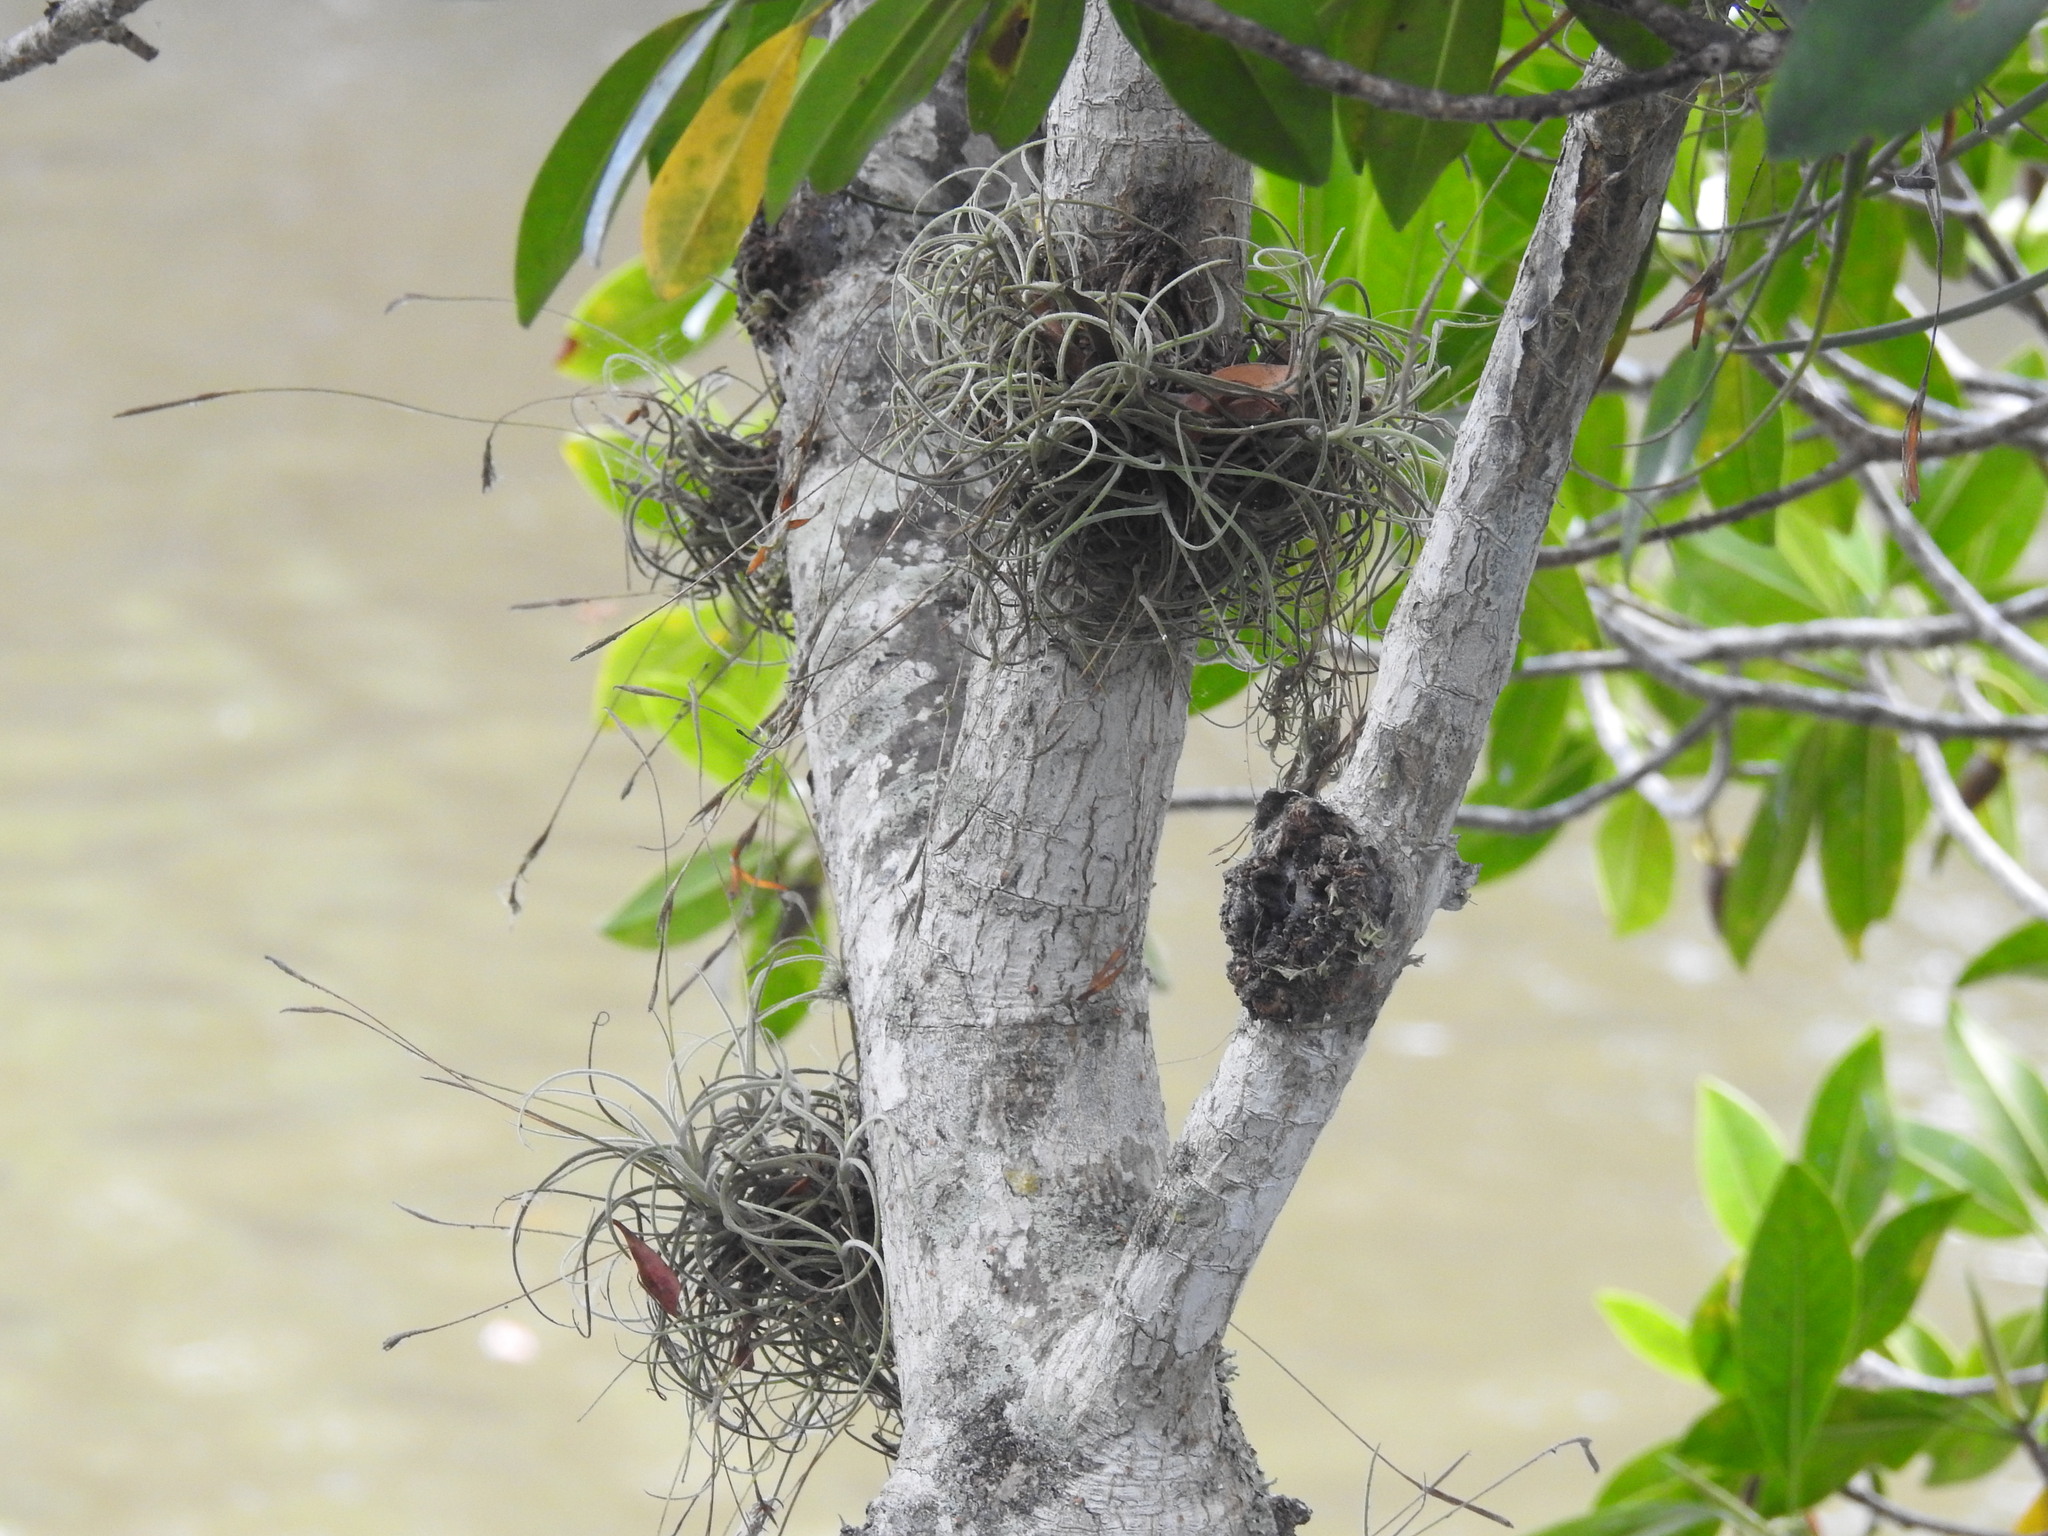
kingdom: Plantae
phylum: Tracheophyta
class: Liliopsida
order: Poales
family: Bromeliaceae
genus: Tillandsia
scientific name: Tillandsia recurvata
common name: Small ballmoss
